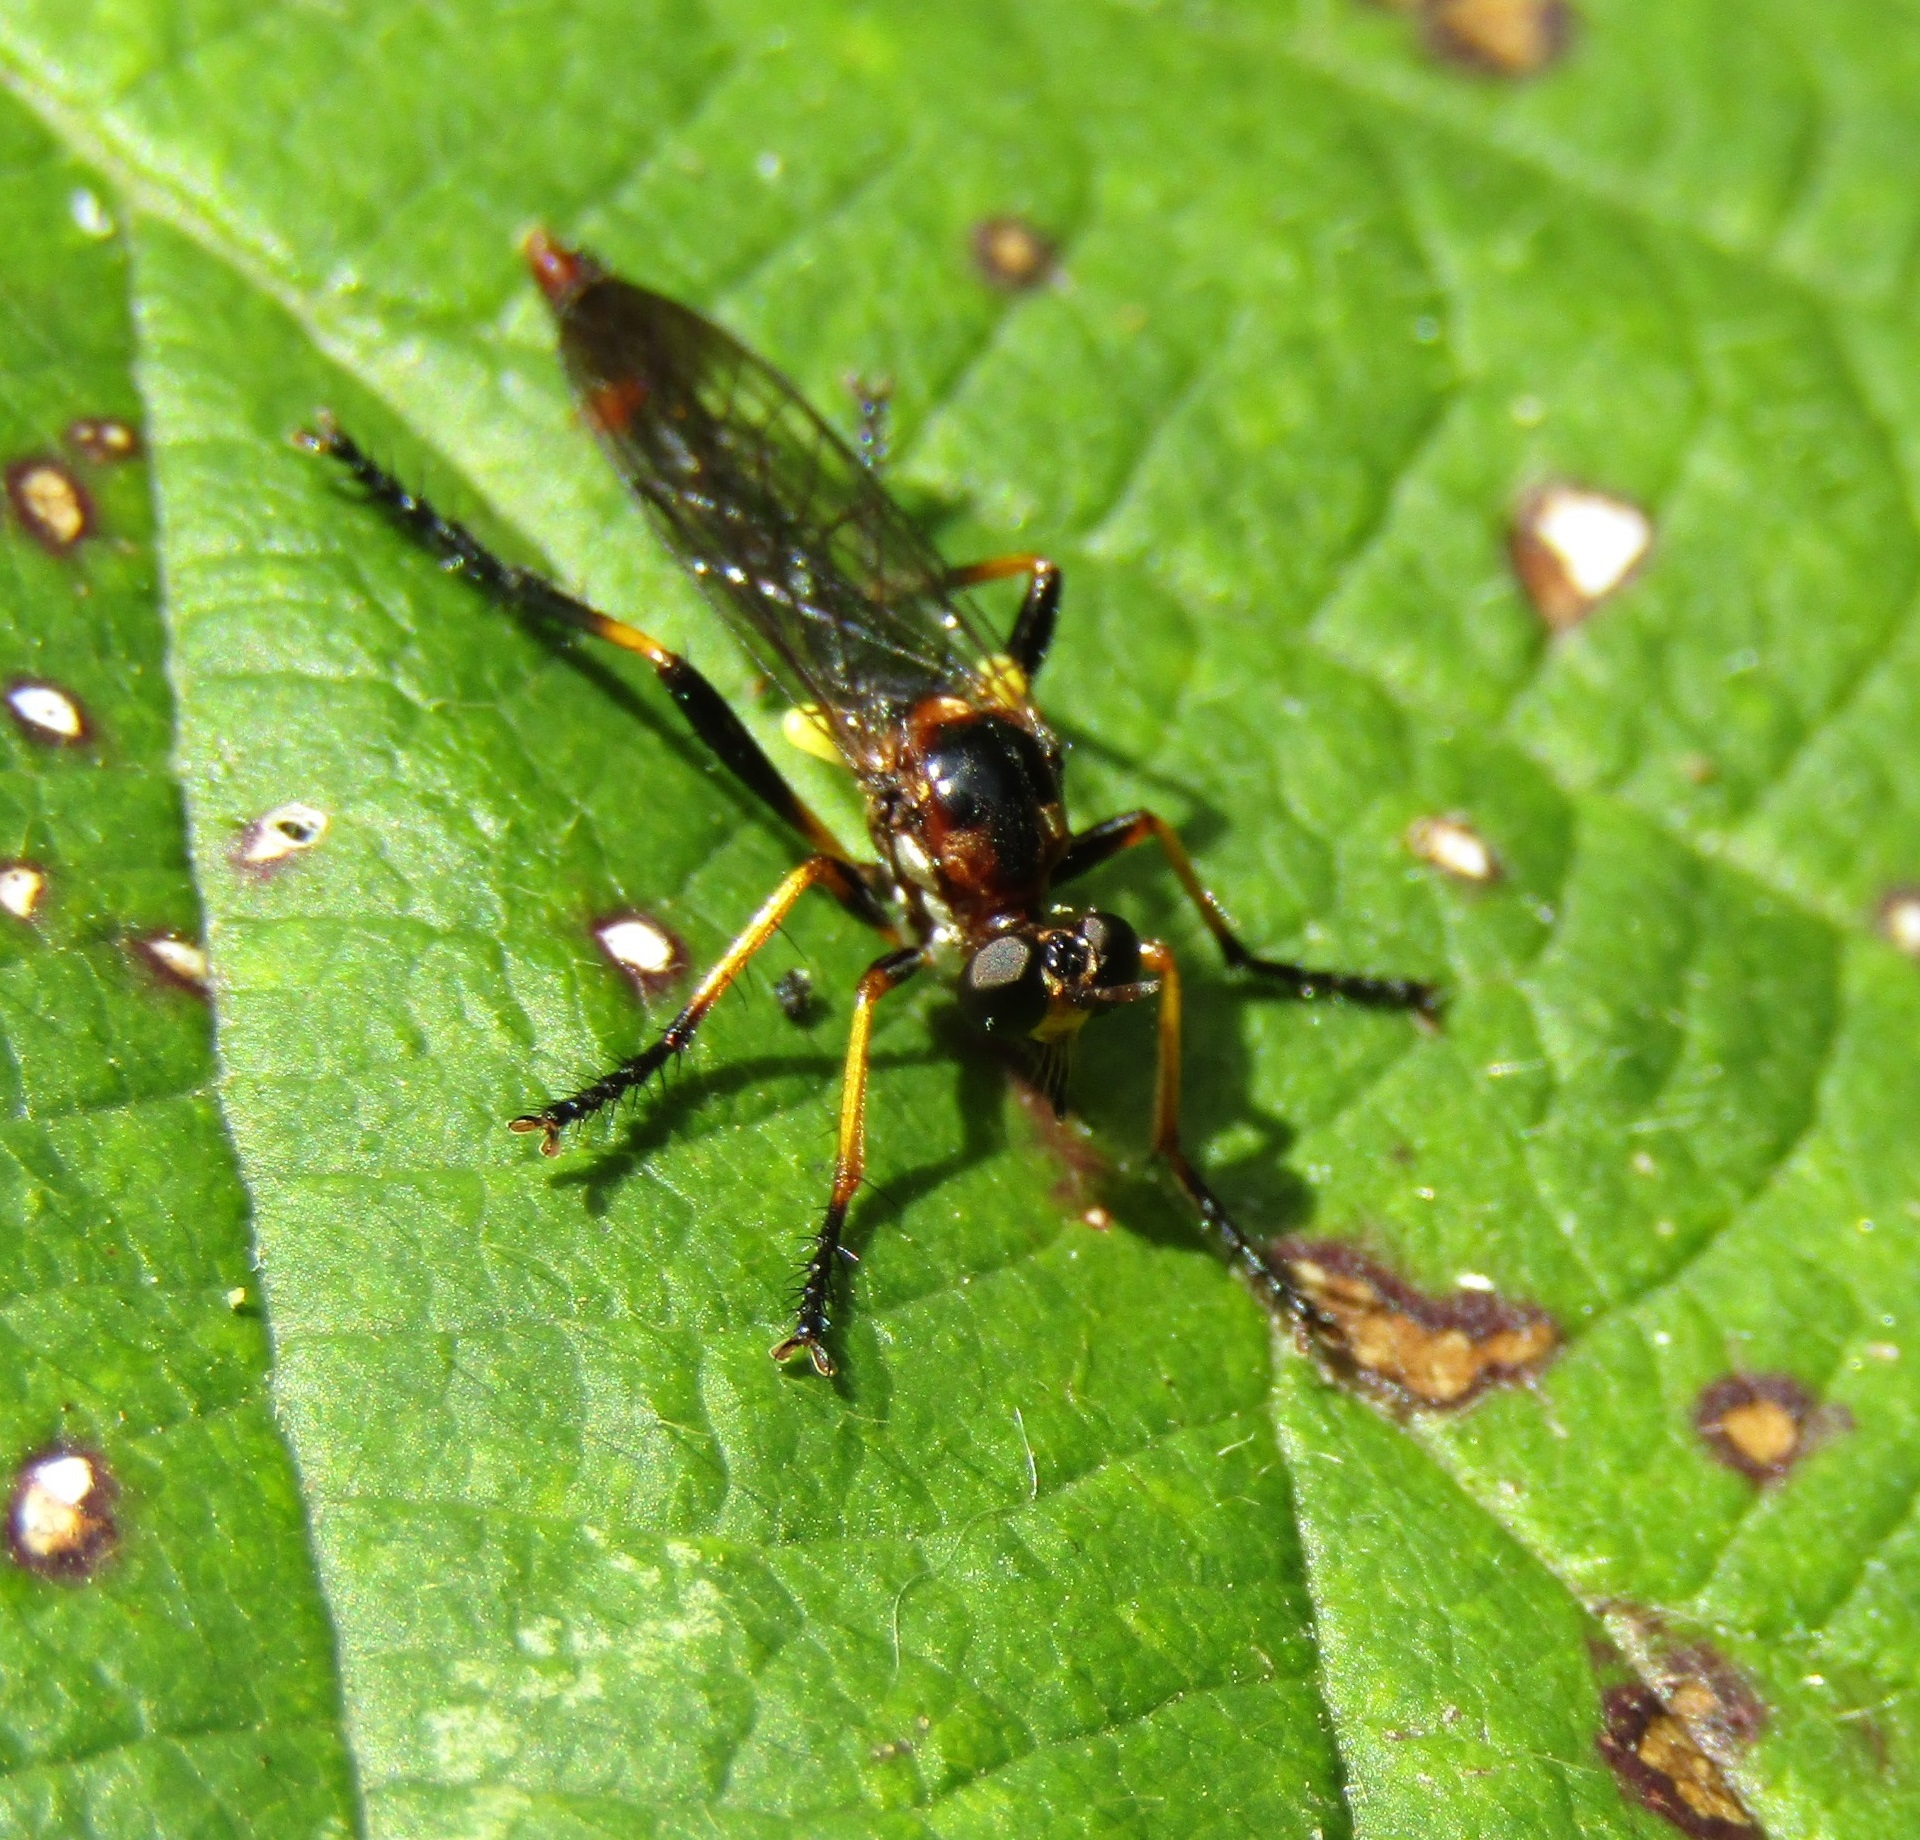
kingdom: Animalia
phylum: Arthropoda
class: Insecta
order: Diptera
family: Asilidae
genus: Saropogon
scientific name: Saropogon fascipes
